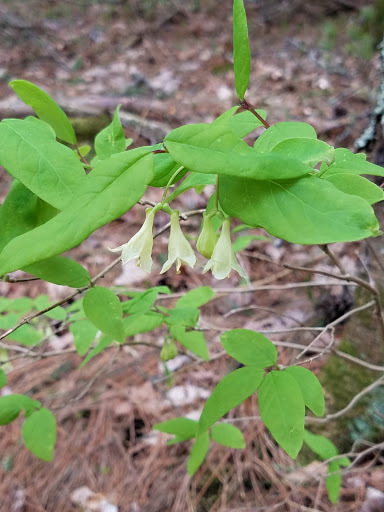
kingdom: Plantae
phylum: Tracheophyta
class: Magnoliopsida
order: Dipsacales
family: Caprifoliaceae
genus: Lonicera
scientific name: Lonicera canadensis
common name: American fly-honeysuckle
